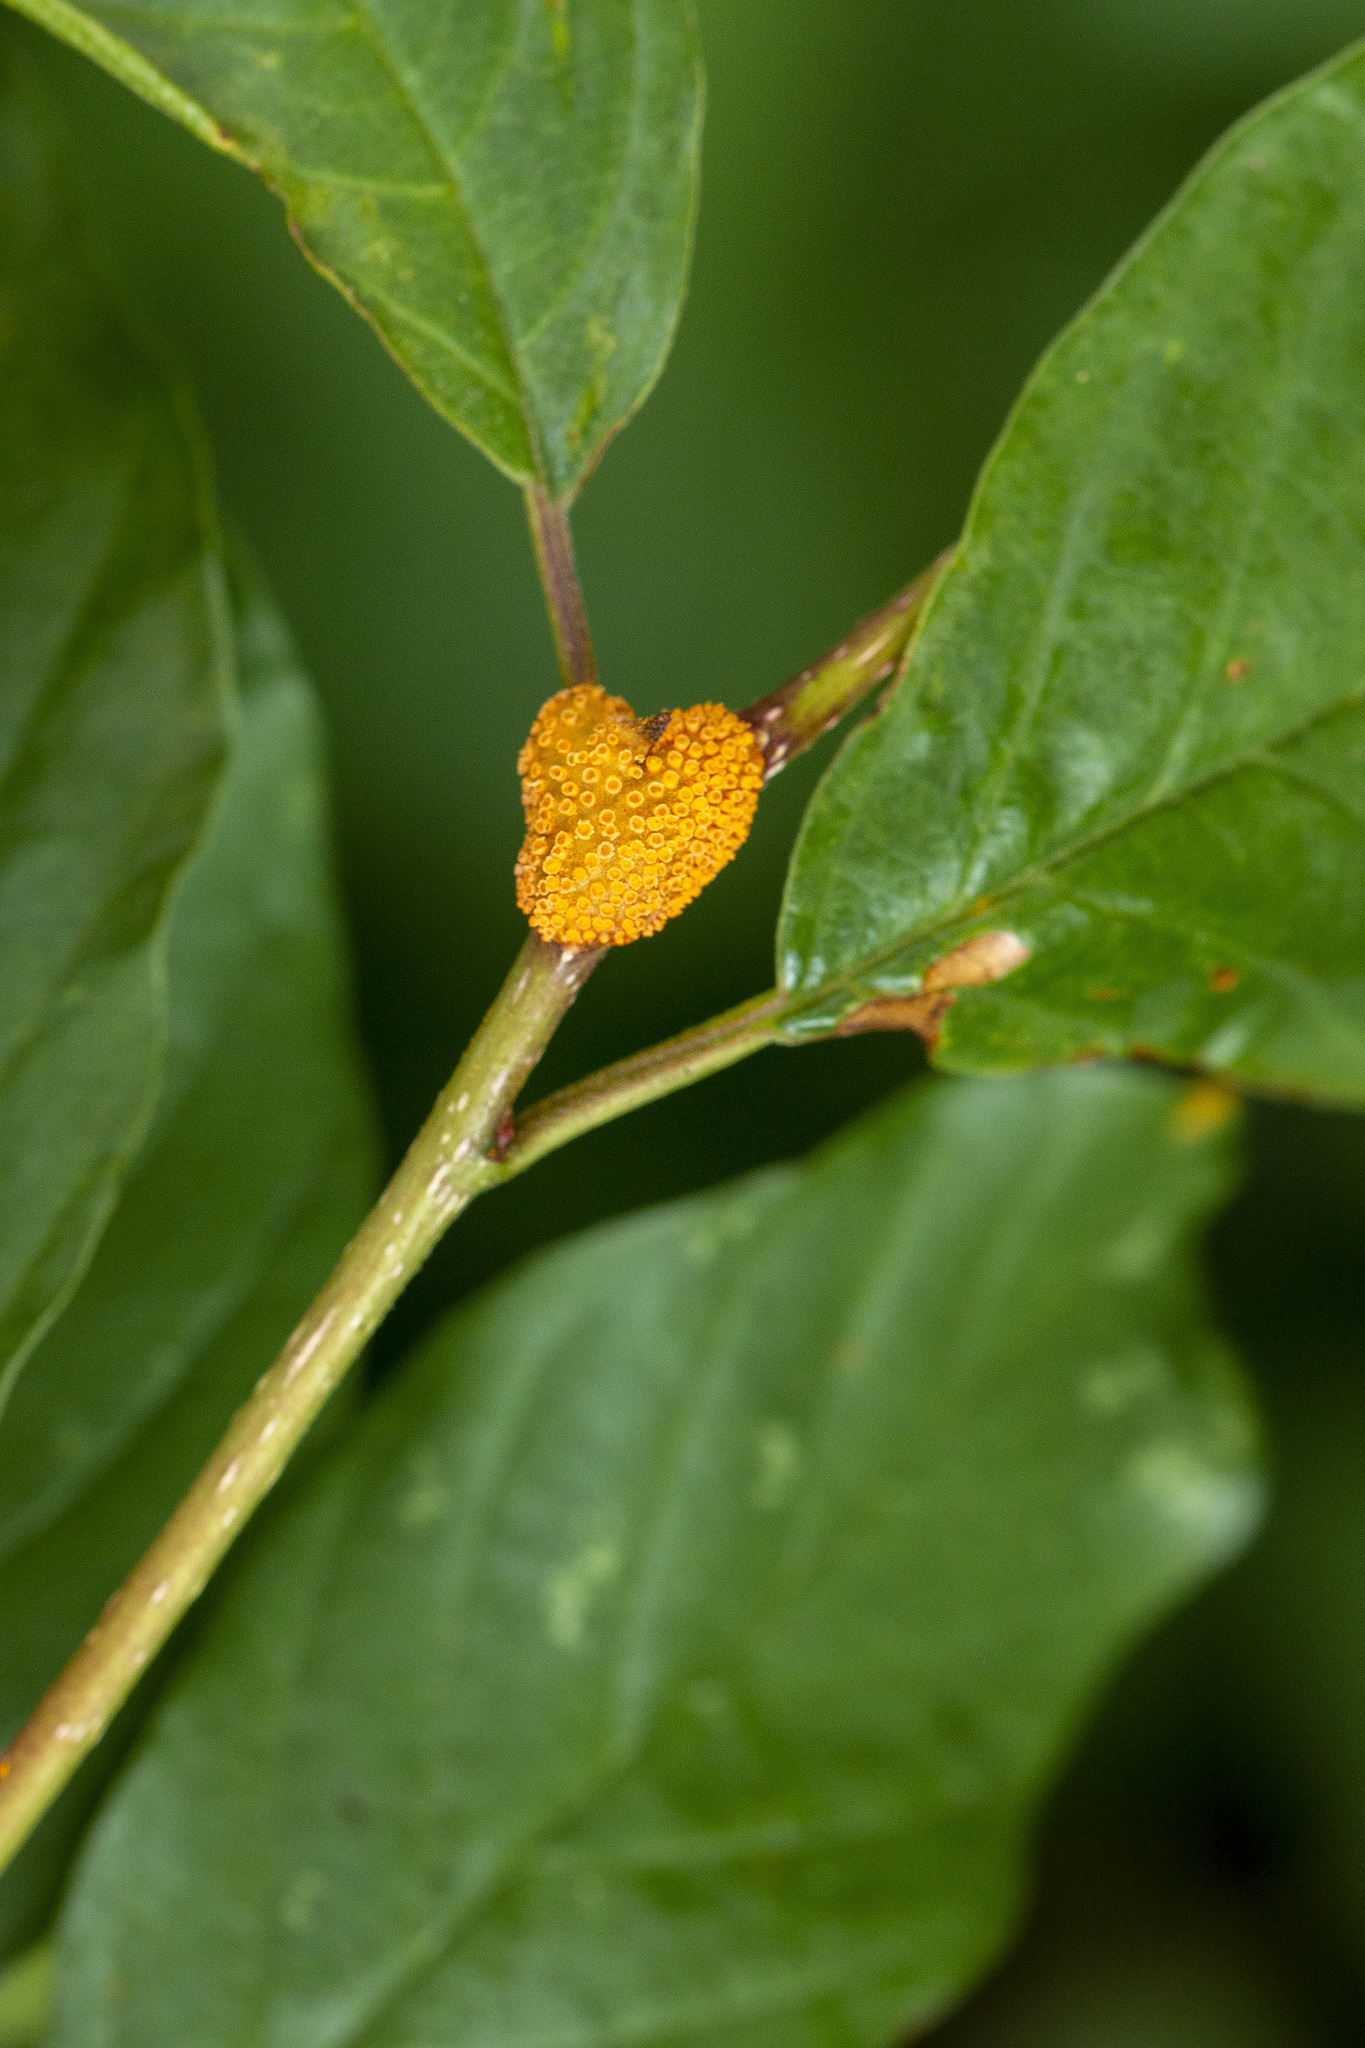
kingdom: Fungi
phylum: Basidiomycota
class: Pucciniomycetes
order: Pucciniales
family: Pucciniaceae
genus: Puccinia
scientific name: Puccinia coronata
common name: Crown rust
